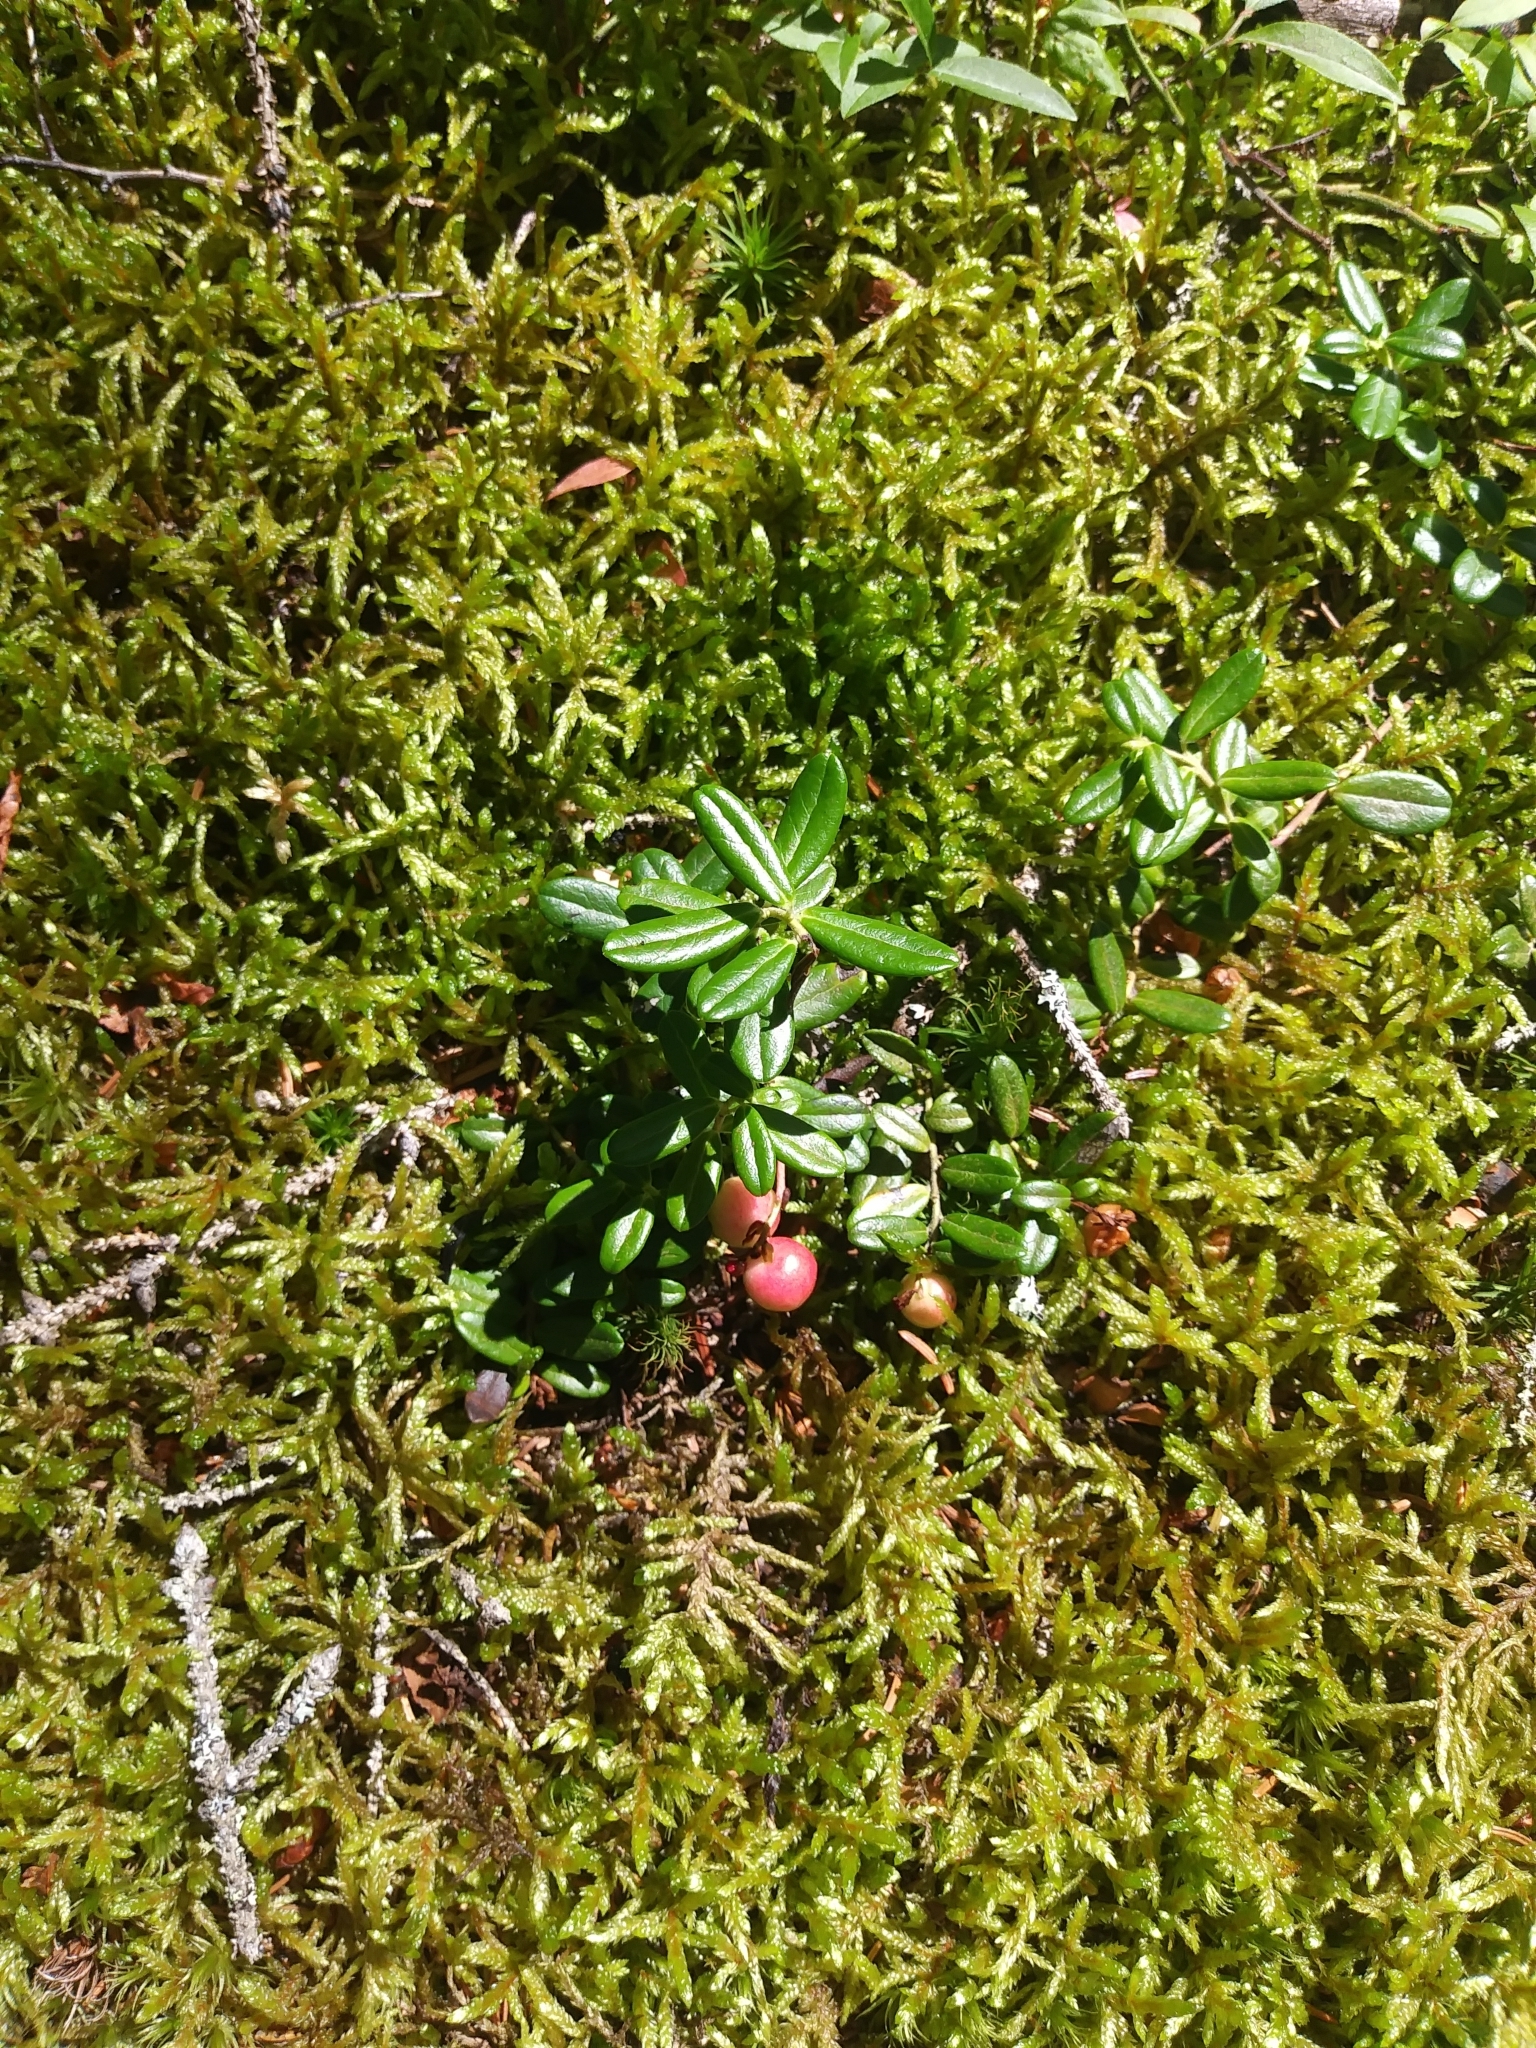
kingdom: Plantae
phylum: Tracheophyta
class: Magnoliopsida
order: Ericales
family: Ericaceae
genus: Vaccinium
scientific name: Vaccinium vitis-idaea
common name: Cowberry
